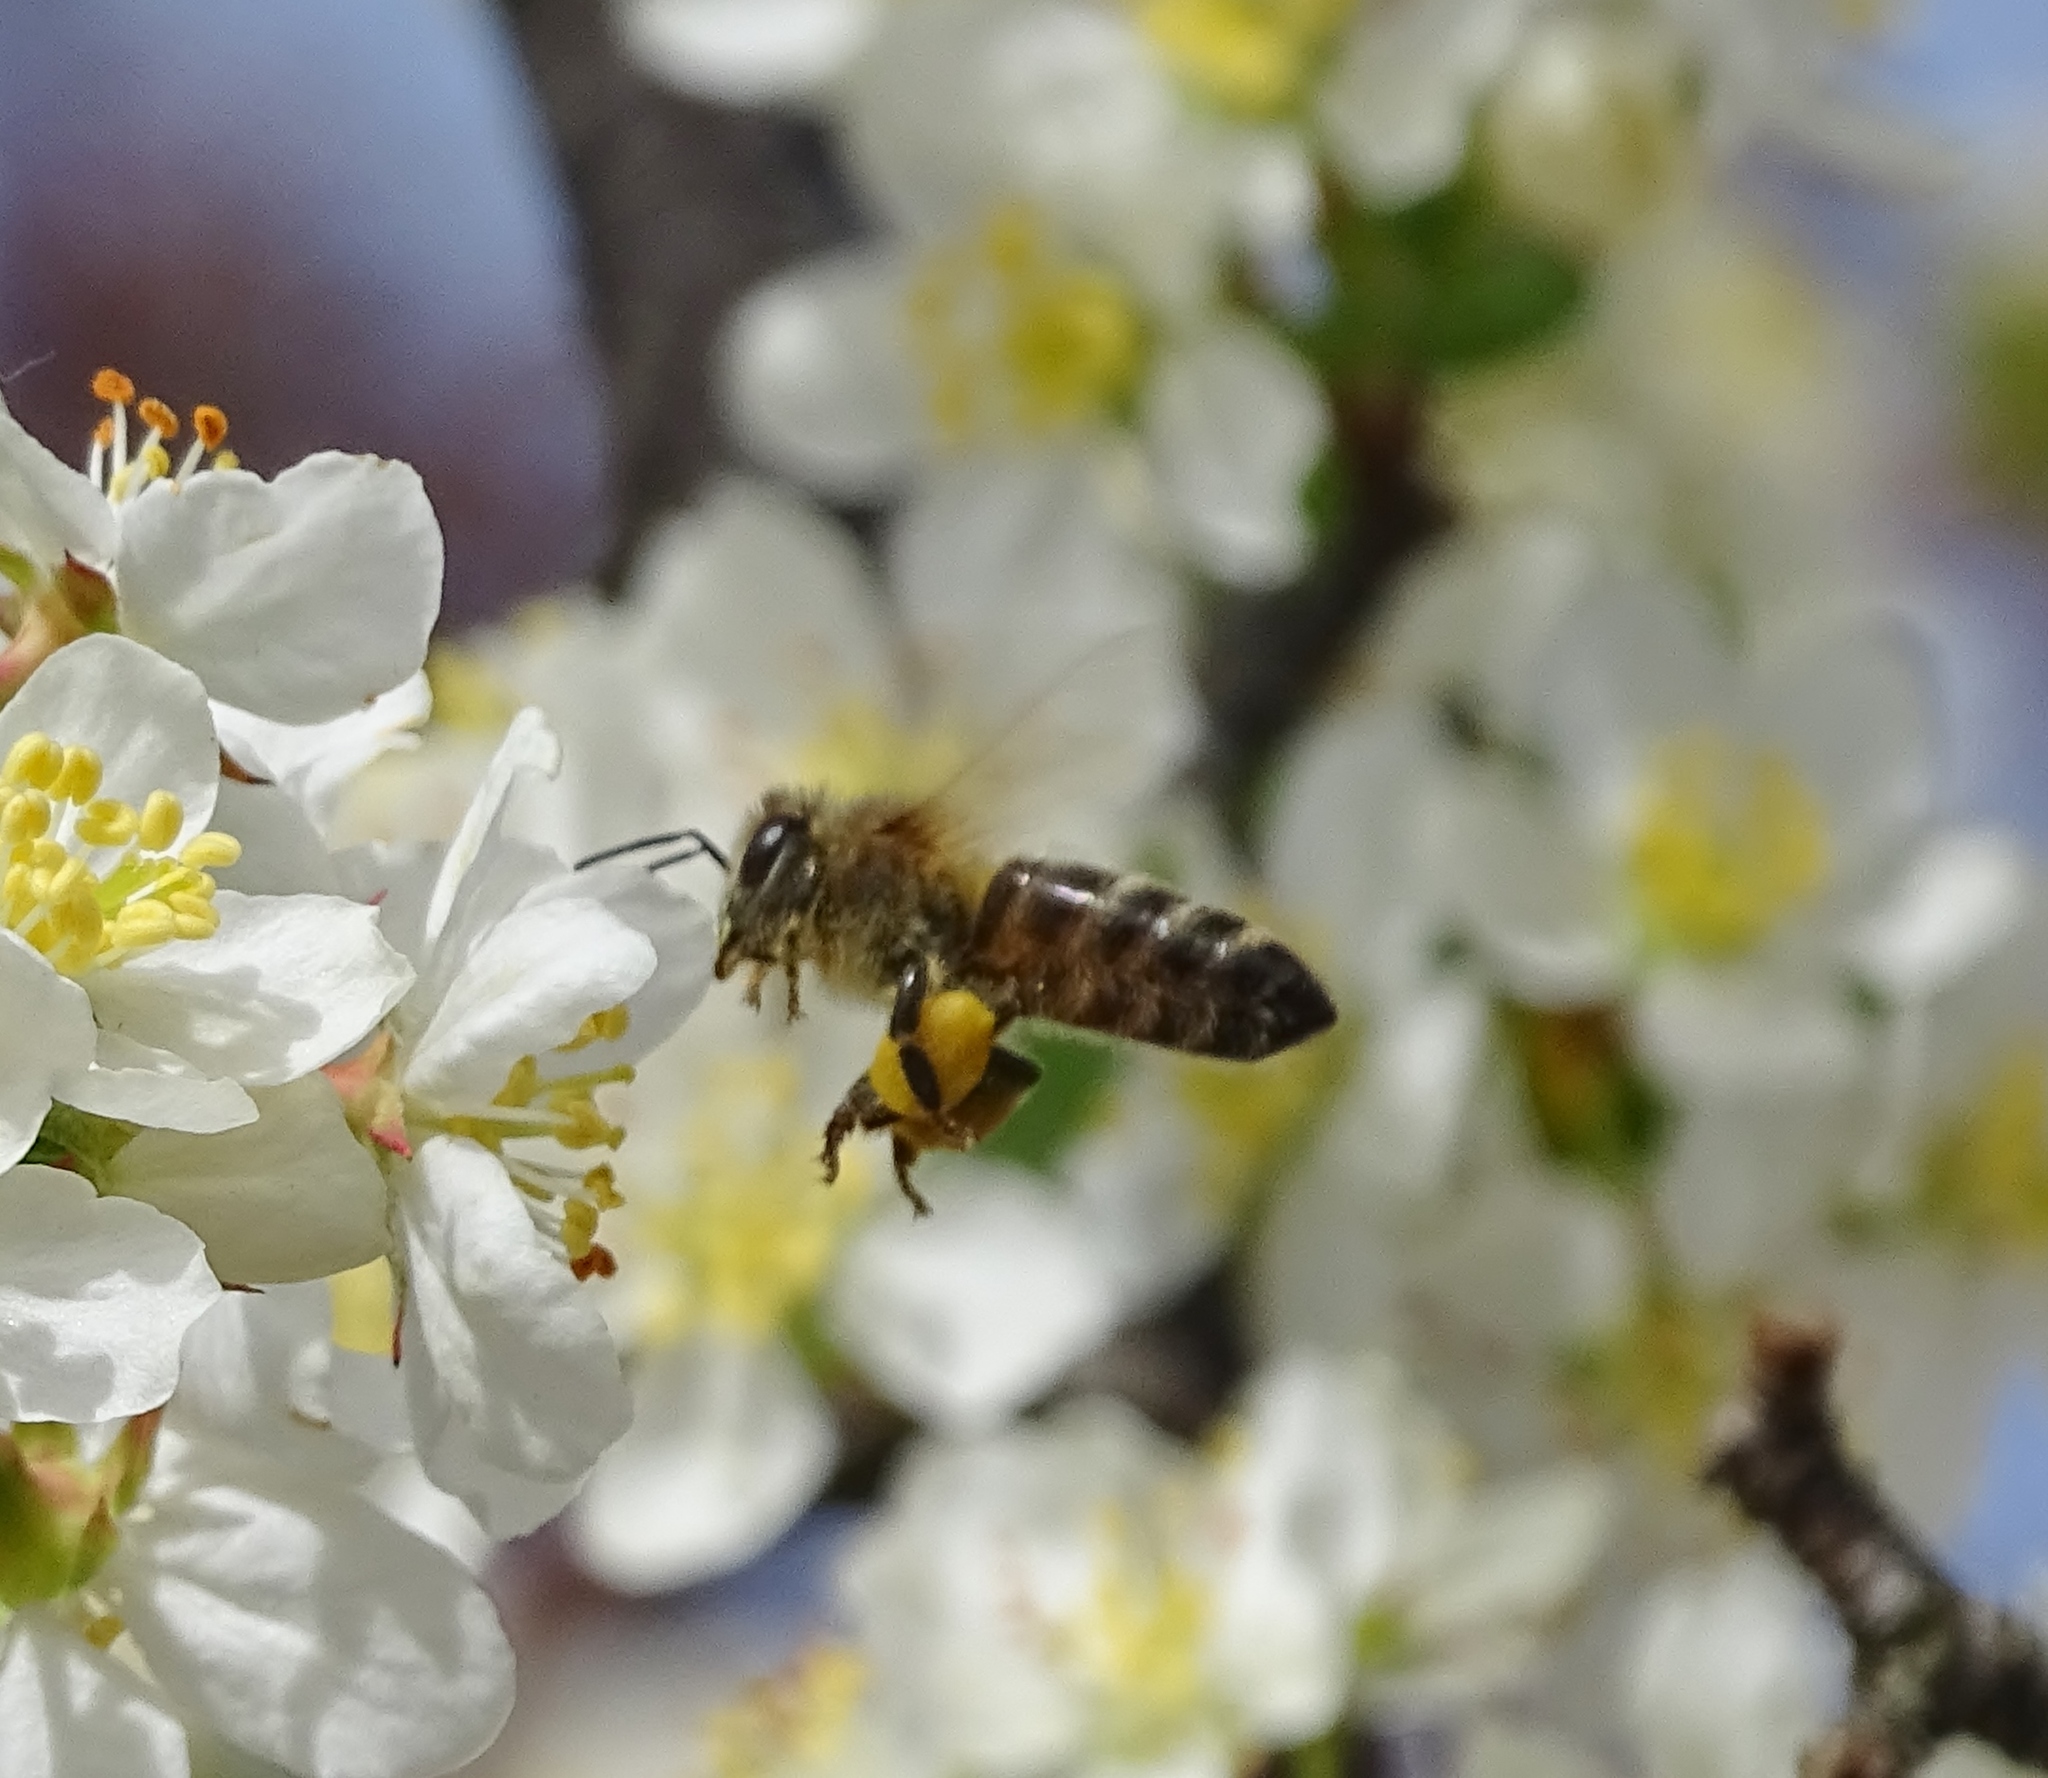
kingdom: Animalia
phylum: Arthropoda
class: Insecta
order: Hymenoptera
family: Apidae
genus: Apis
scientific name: Apis mellifera
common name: Honey bee
